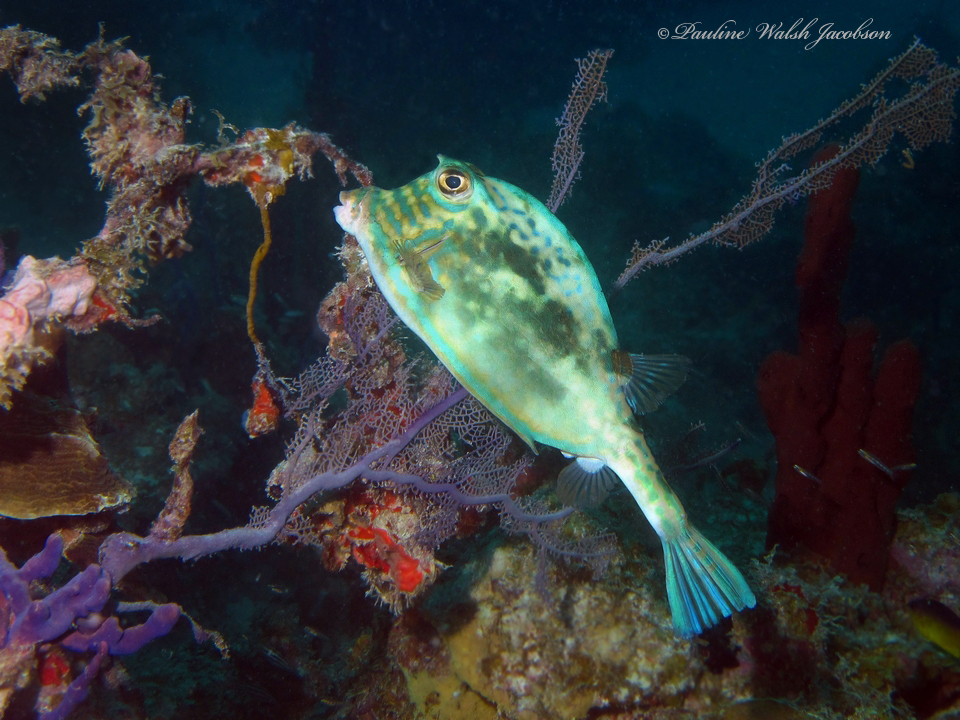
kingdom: Animalia
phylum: Chordata
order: Tetraodontiformes
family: Ostraciidae
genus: Acanthostracion
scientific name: Acanthostracion quadricornis
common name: Scrawled cowfish
